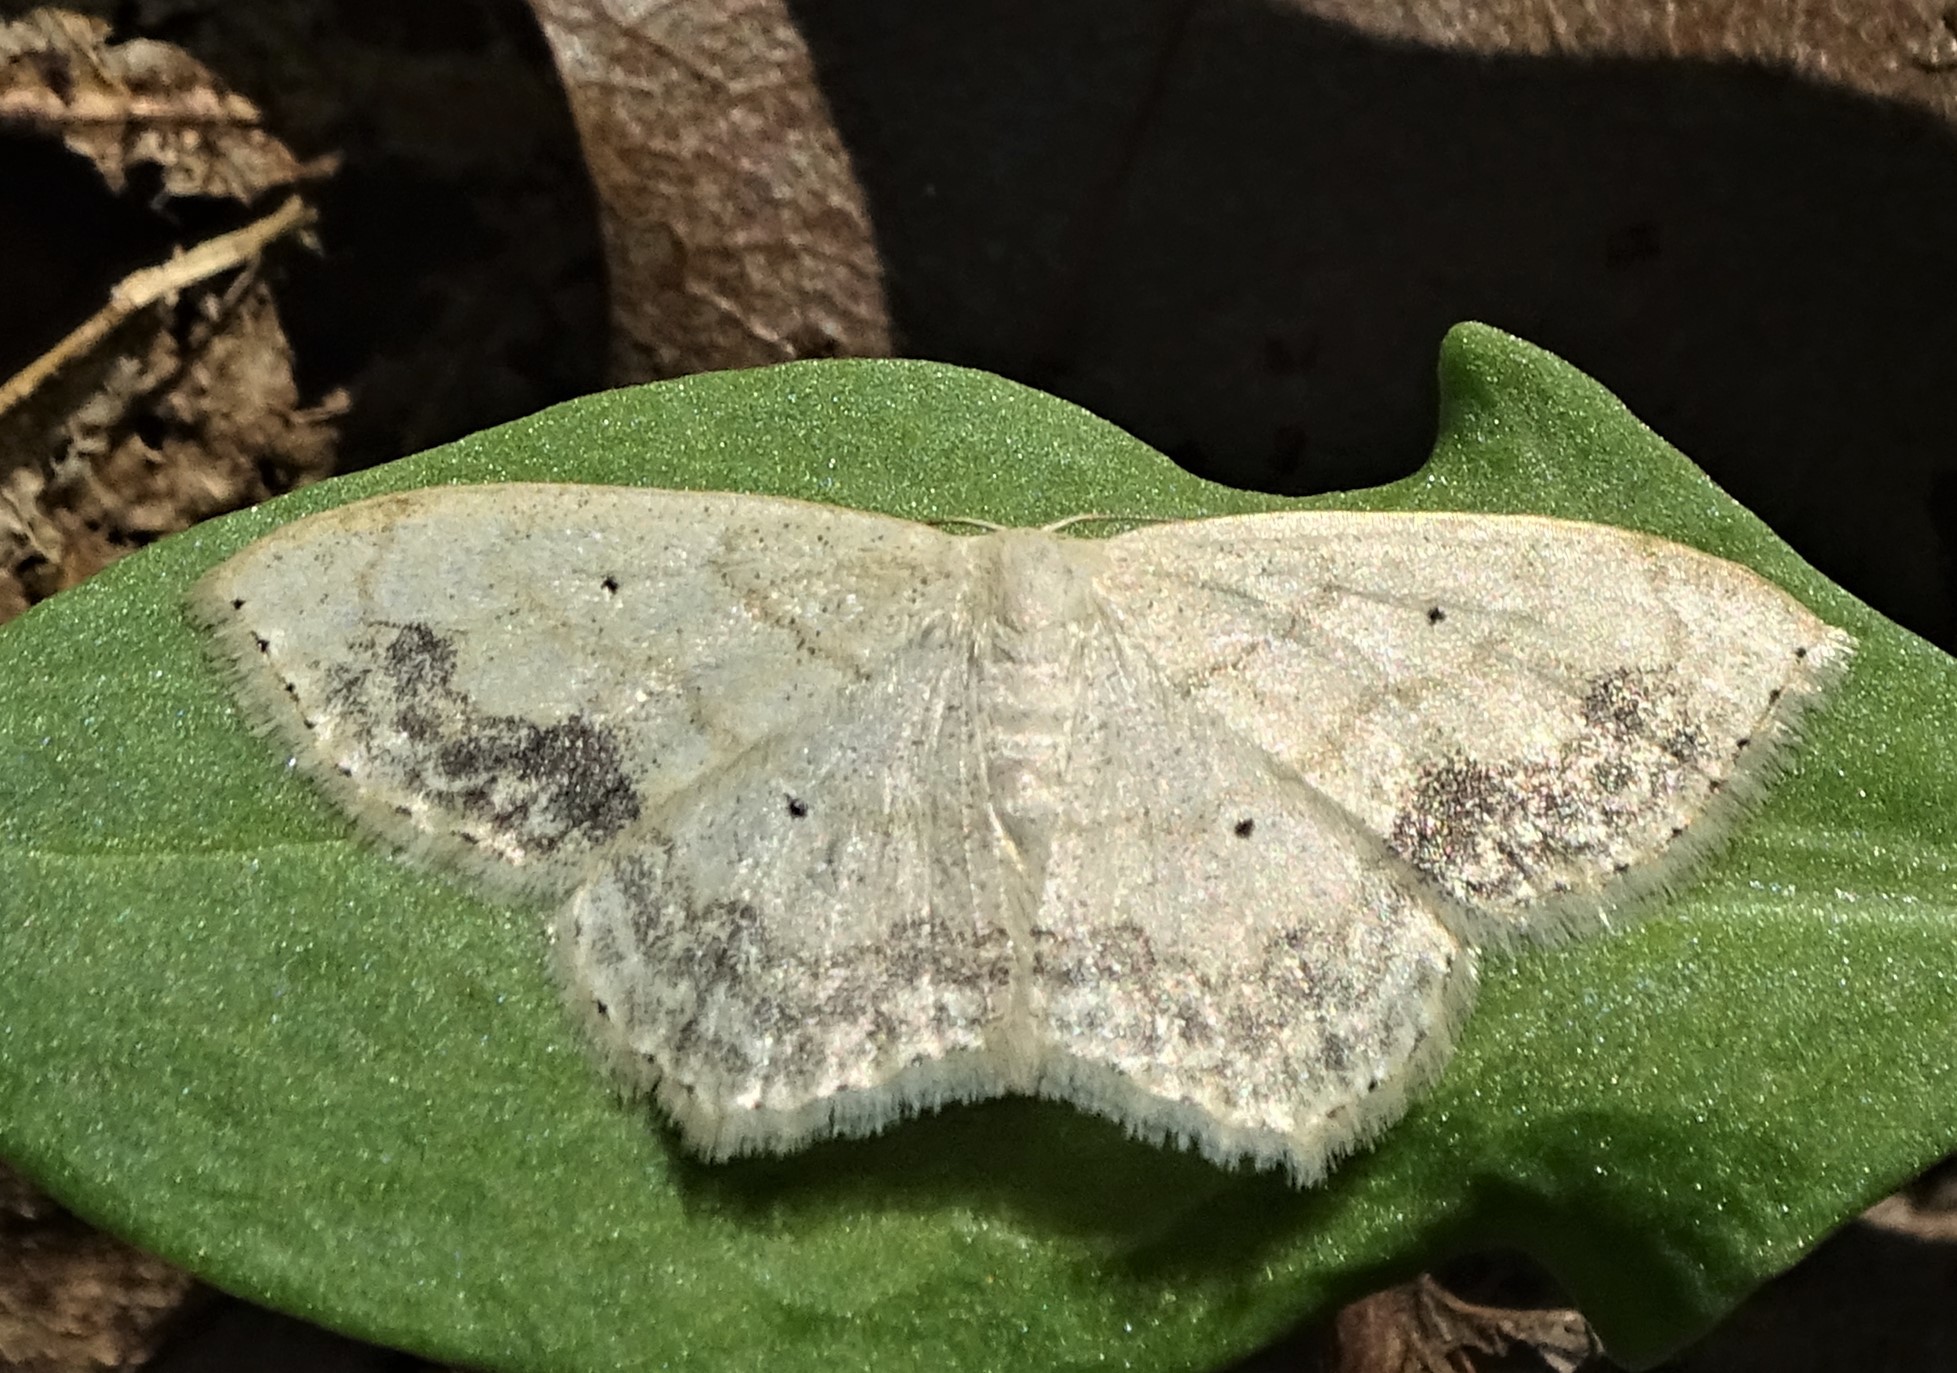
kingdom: Animalia
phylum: Arthropoda
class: Insecta
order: Lepidoptera
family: Geometridae
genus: Scopula
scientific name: Scopula limboundata
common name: Large lace border
